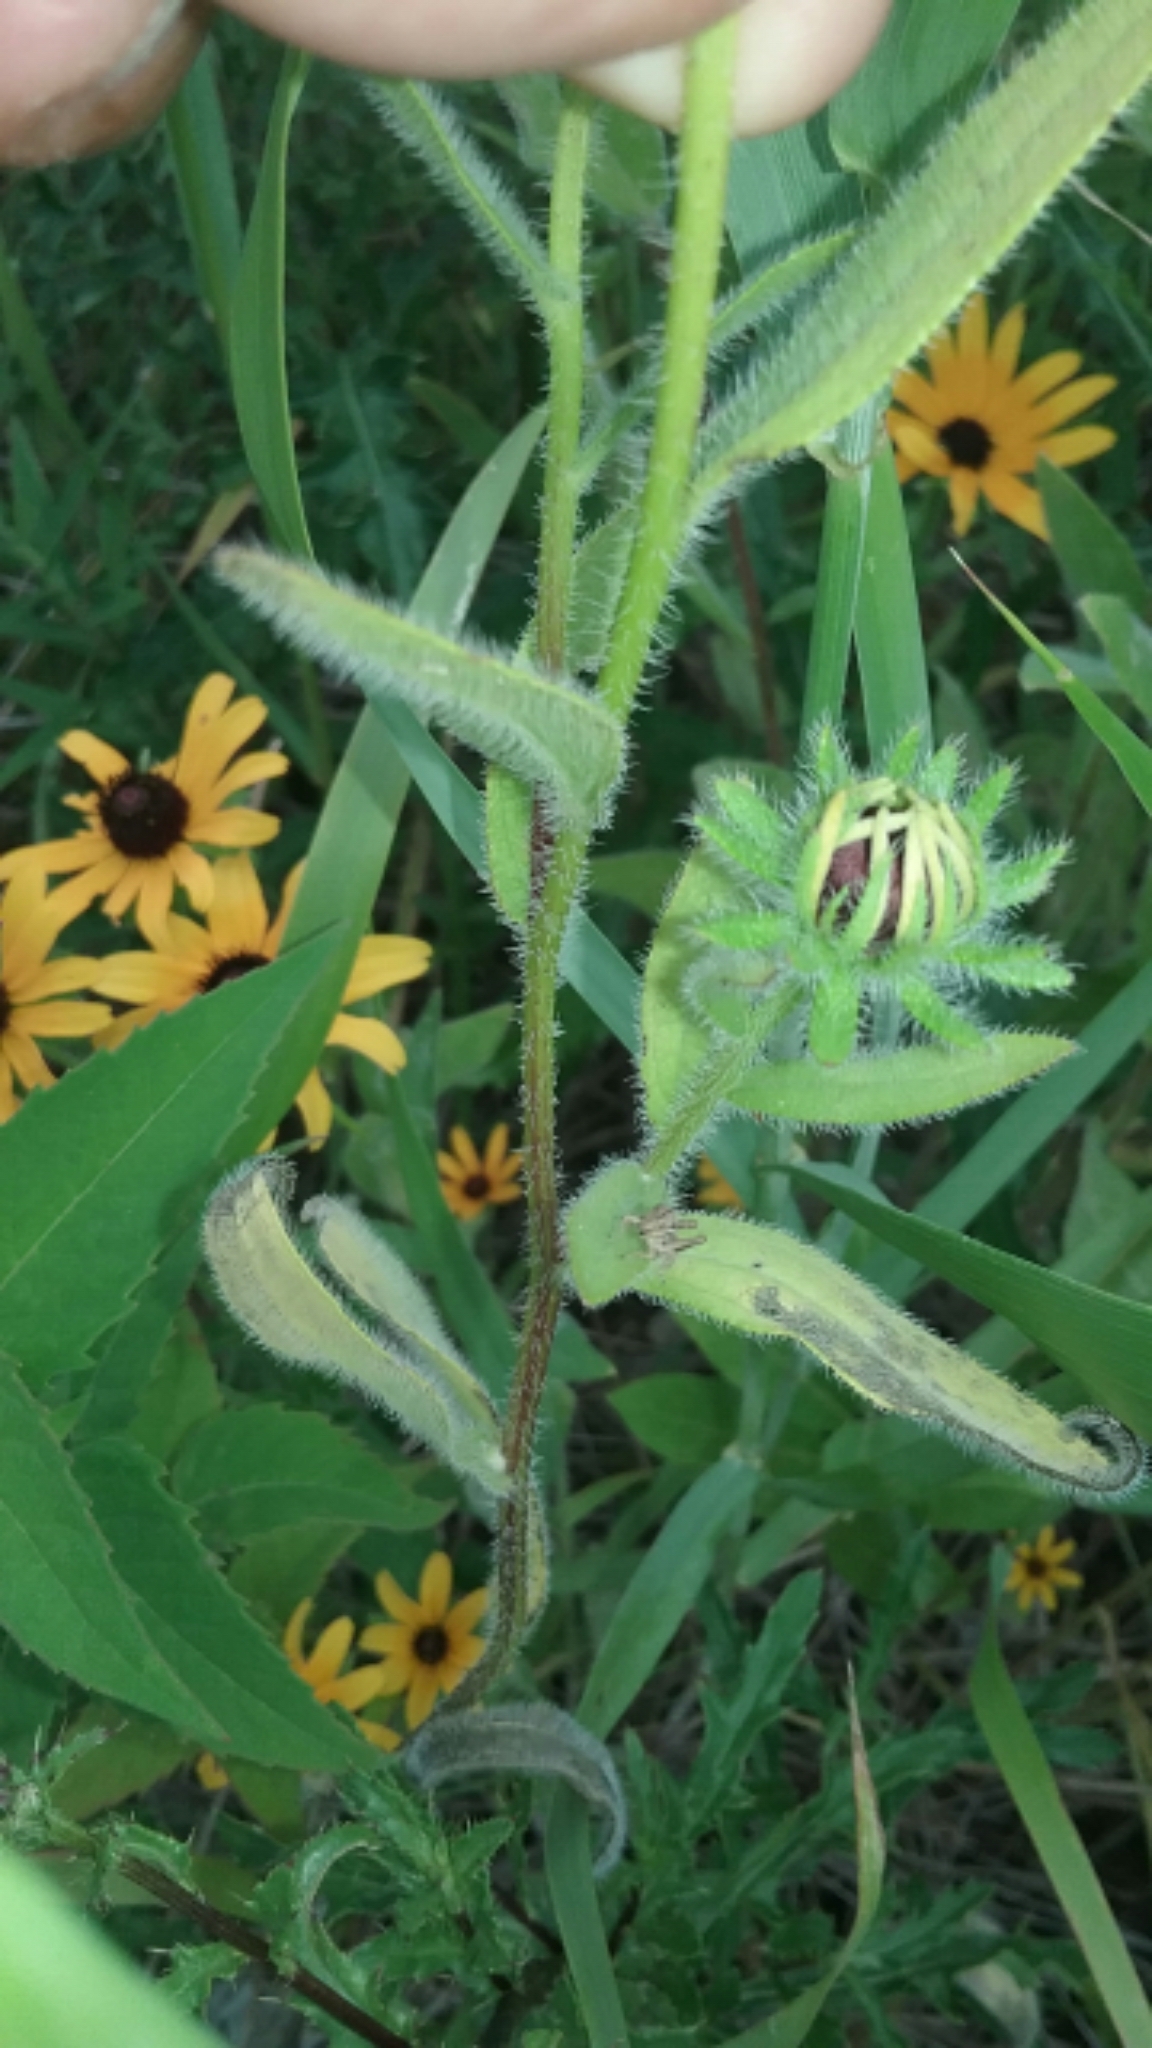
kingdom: Plantae
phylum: Tracheophyta
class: Magnoliopsida
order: Asterales
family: Asteraceae
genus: Rudbeckia
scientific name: Rudbeckia hirta
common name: Black-eyed-susan
